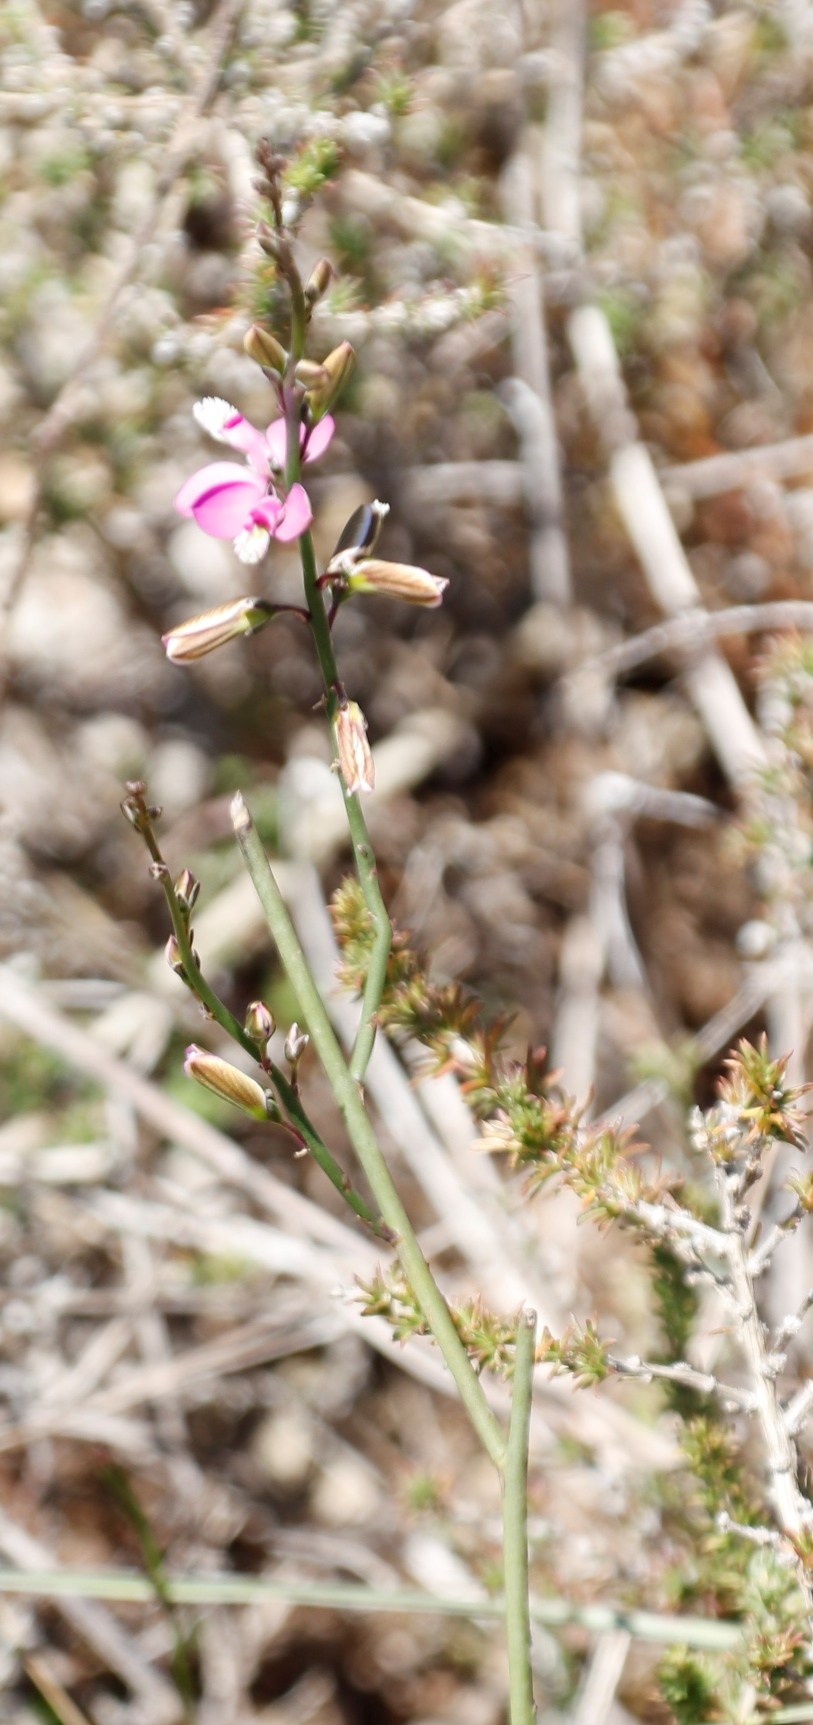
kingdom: Plantae
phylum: Tracheophyta
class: Magnoliopsida
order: Fabales
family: Polygalaceae
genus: Polygala
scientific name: Polygala garcini
